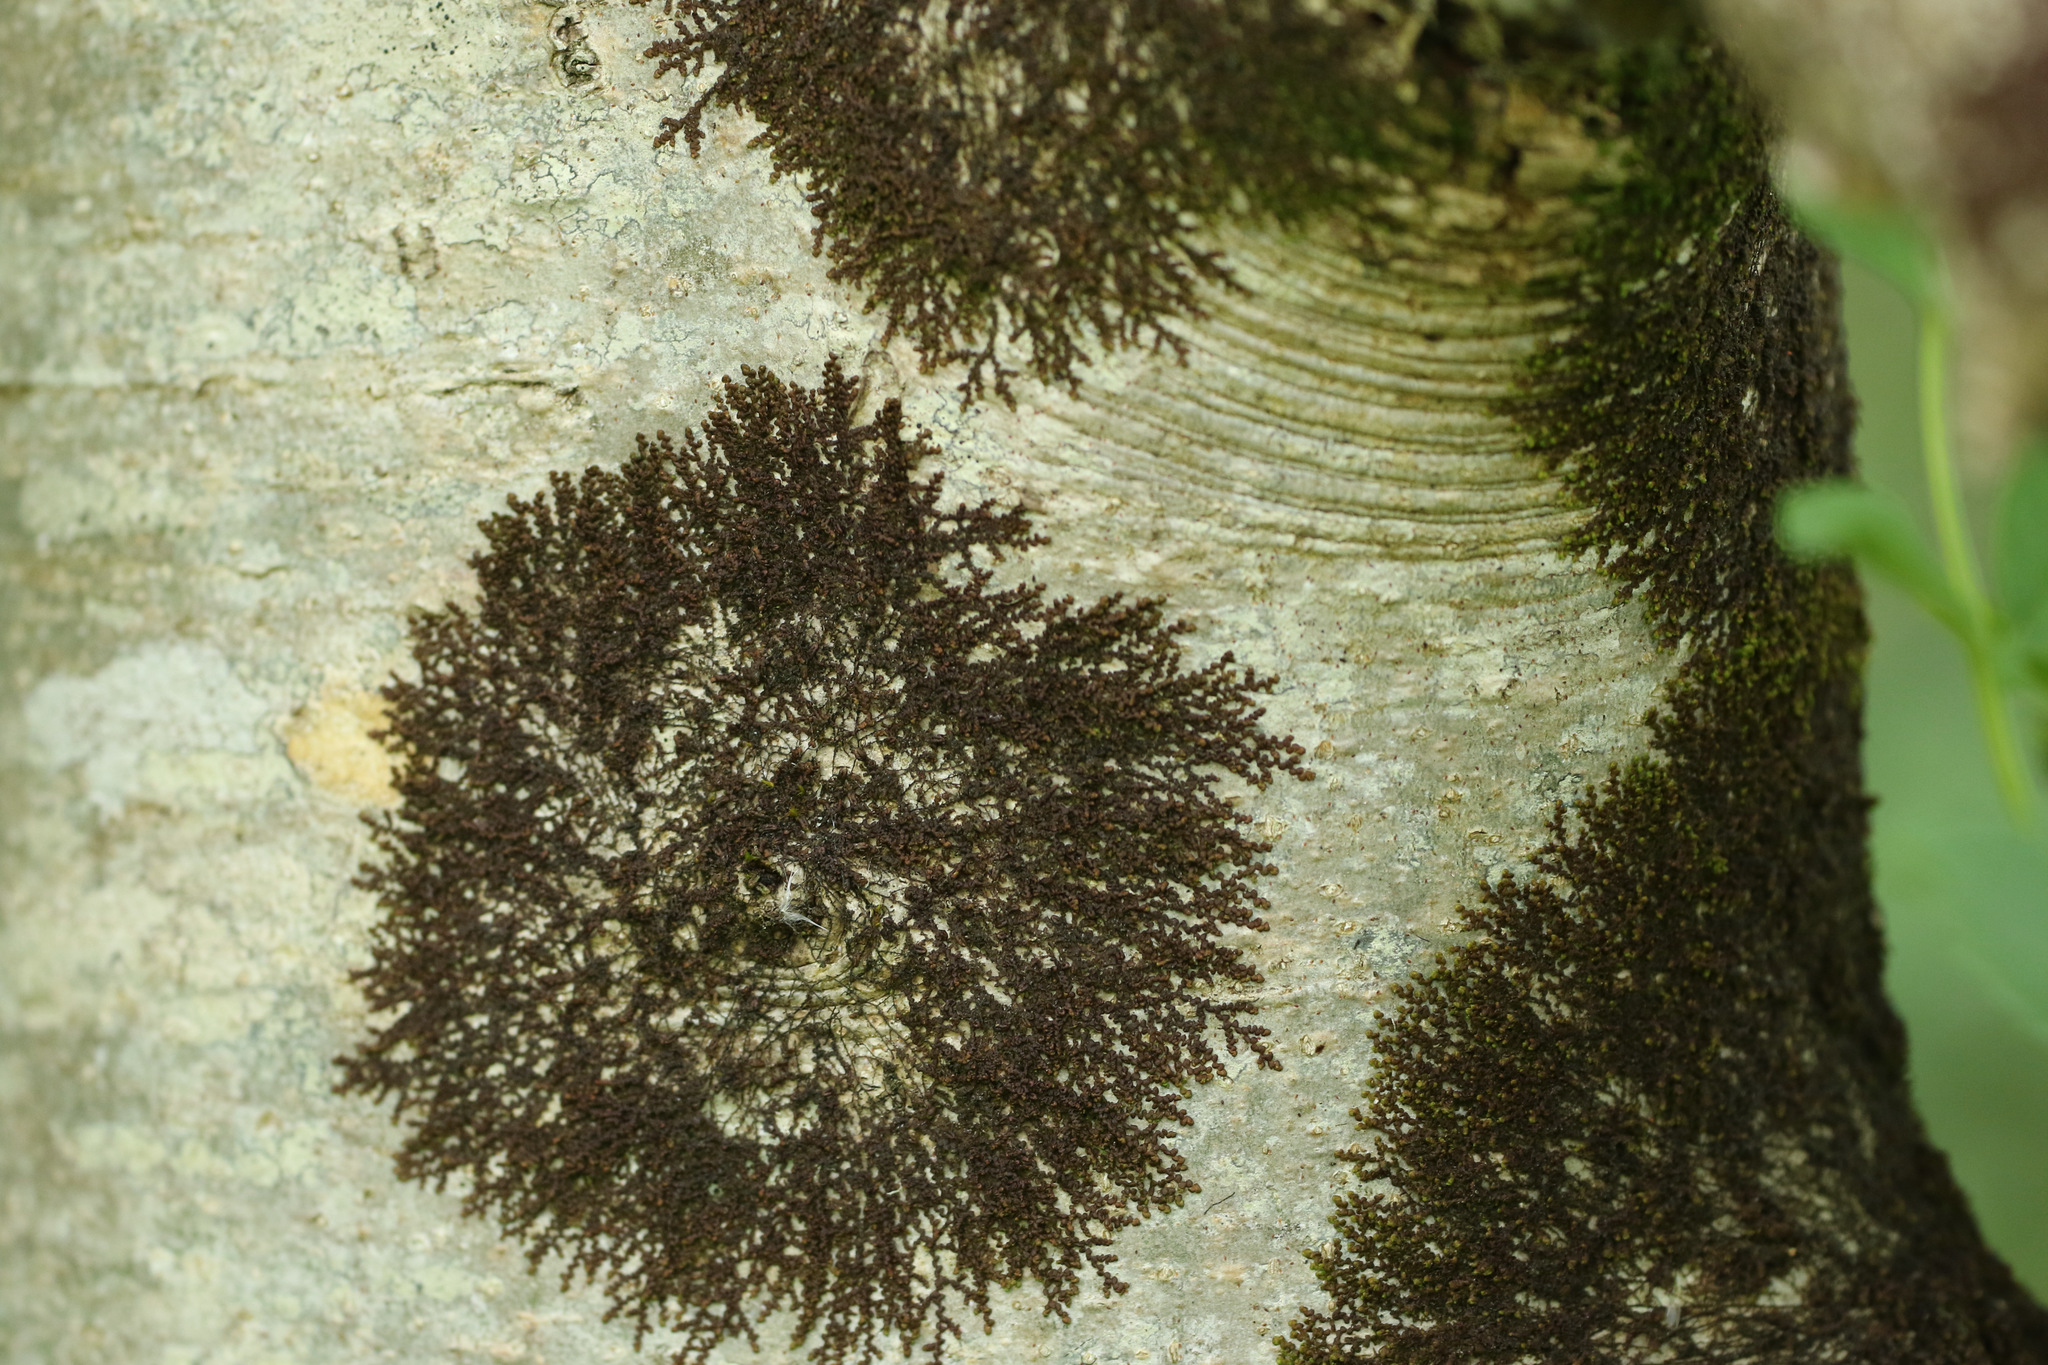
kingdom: Plantae
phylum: Marchantiophyta
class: Jungermanniopsida
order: Porellales
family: Frullaniaceae
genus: Frullania
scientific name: Frullania dilatata
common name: Dilated scalewort
